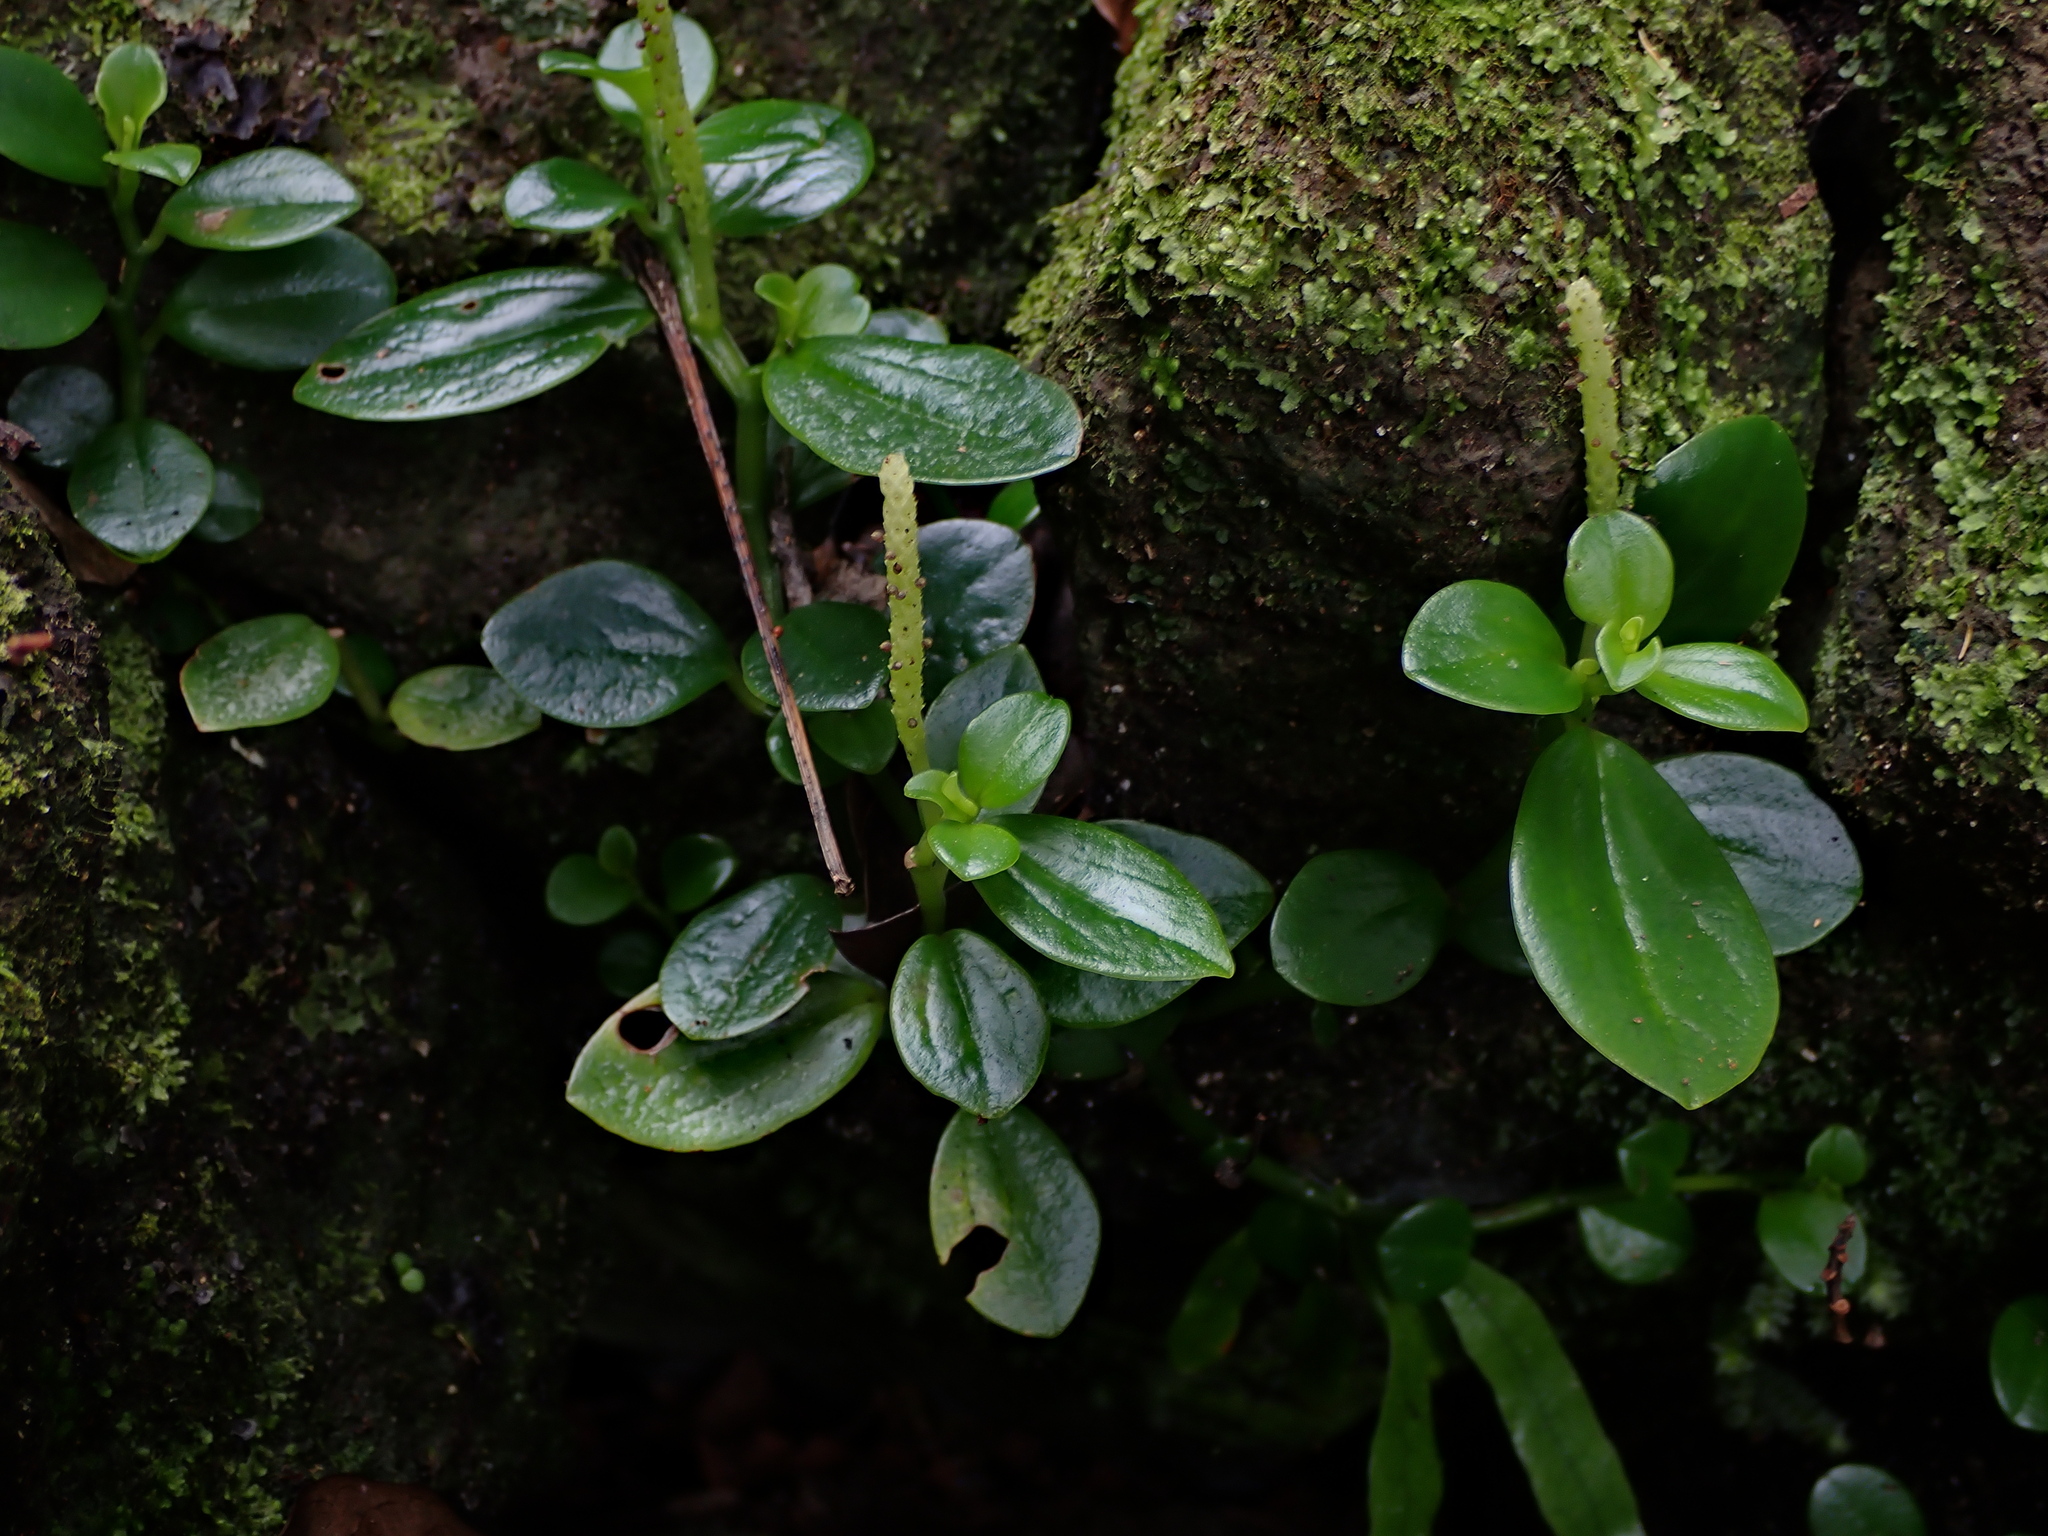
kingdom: Plantae
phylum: Tracheophyta
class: Magnoliopsida
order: Piperales
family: Piperaceae
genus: Peperomia
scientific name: Peperomia urvilleana
